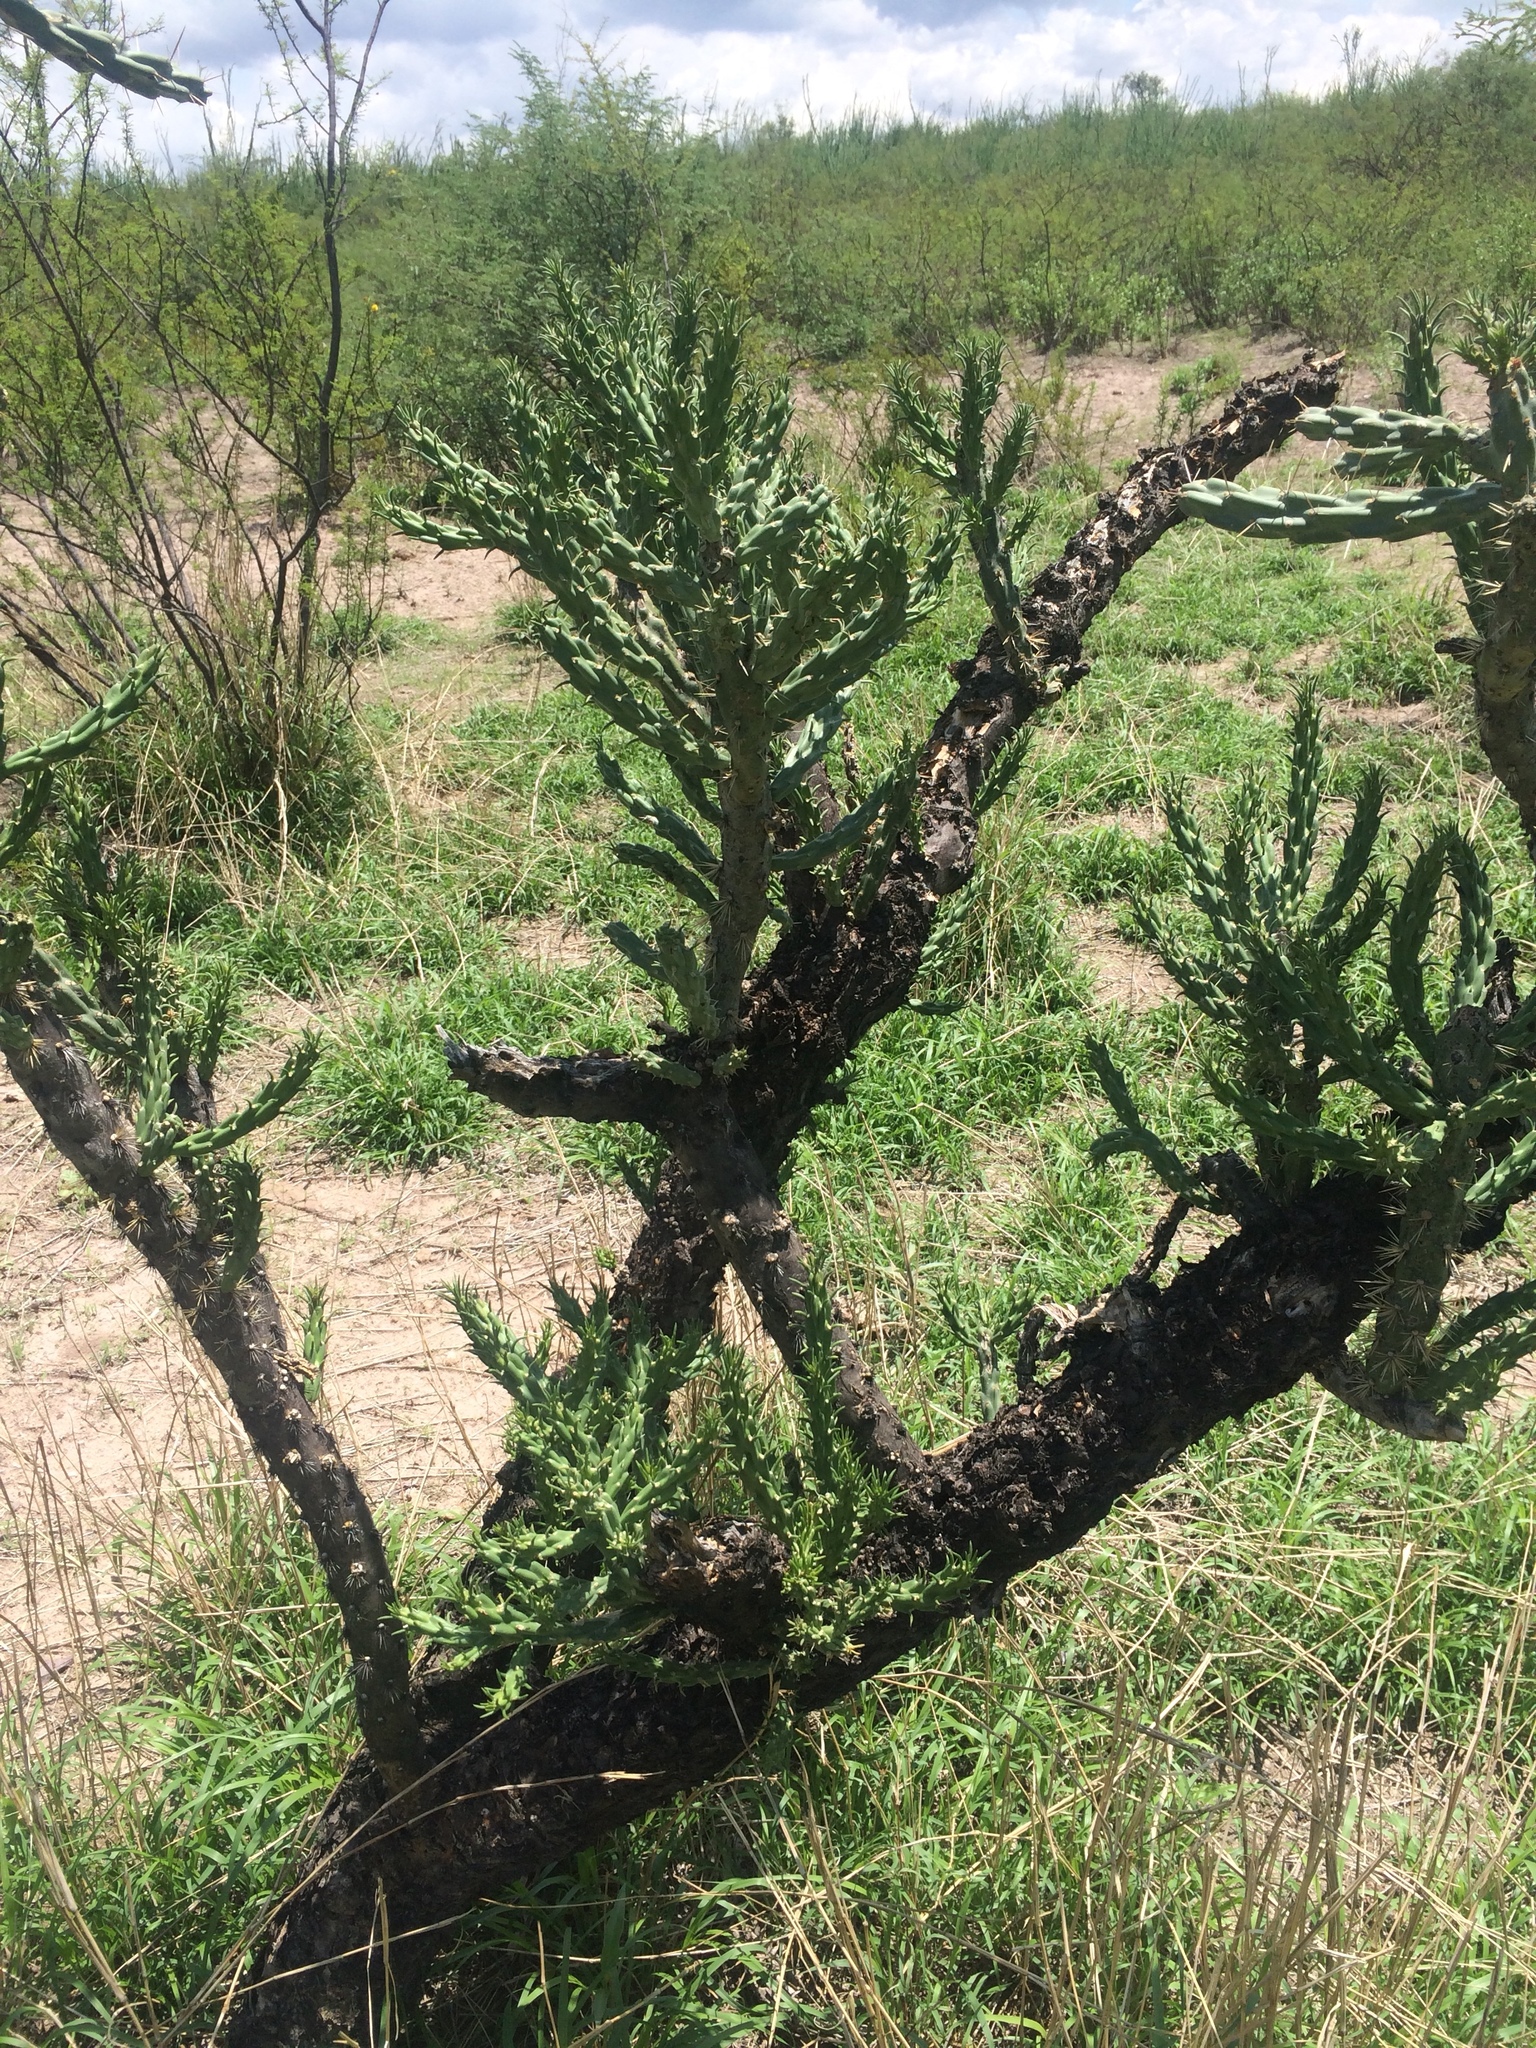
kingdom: Plantae
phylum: Tracheophyta
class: Magnoliopsida
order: Caryophyllales
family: Cactaceae
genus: Cylindropuntia
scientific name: Cylindropuntia imbricata
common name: Candelabrum cactus
